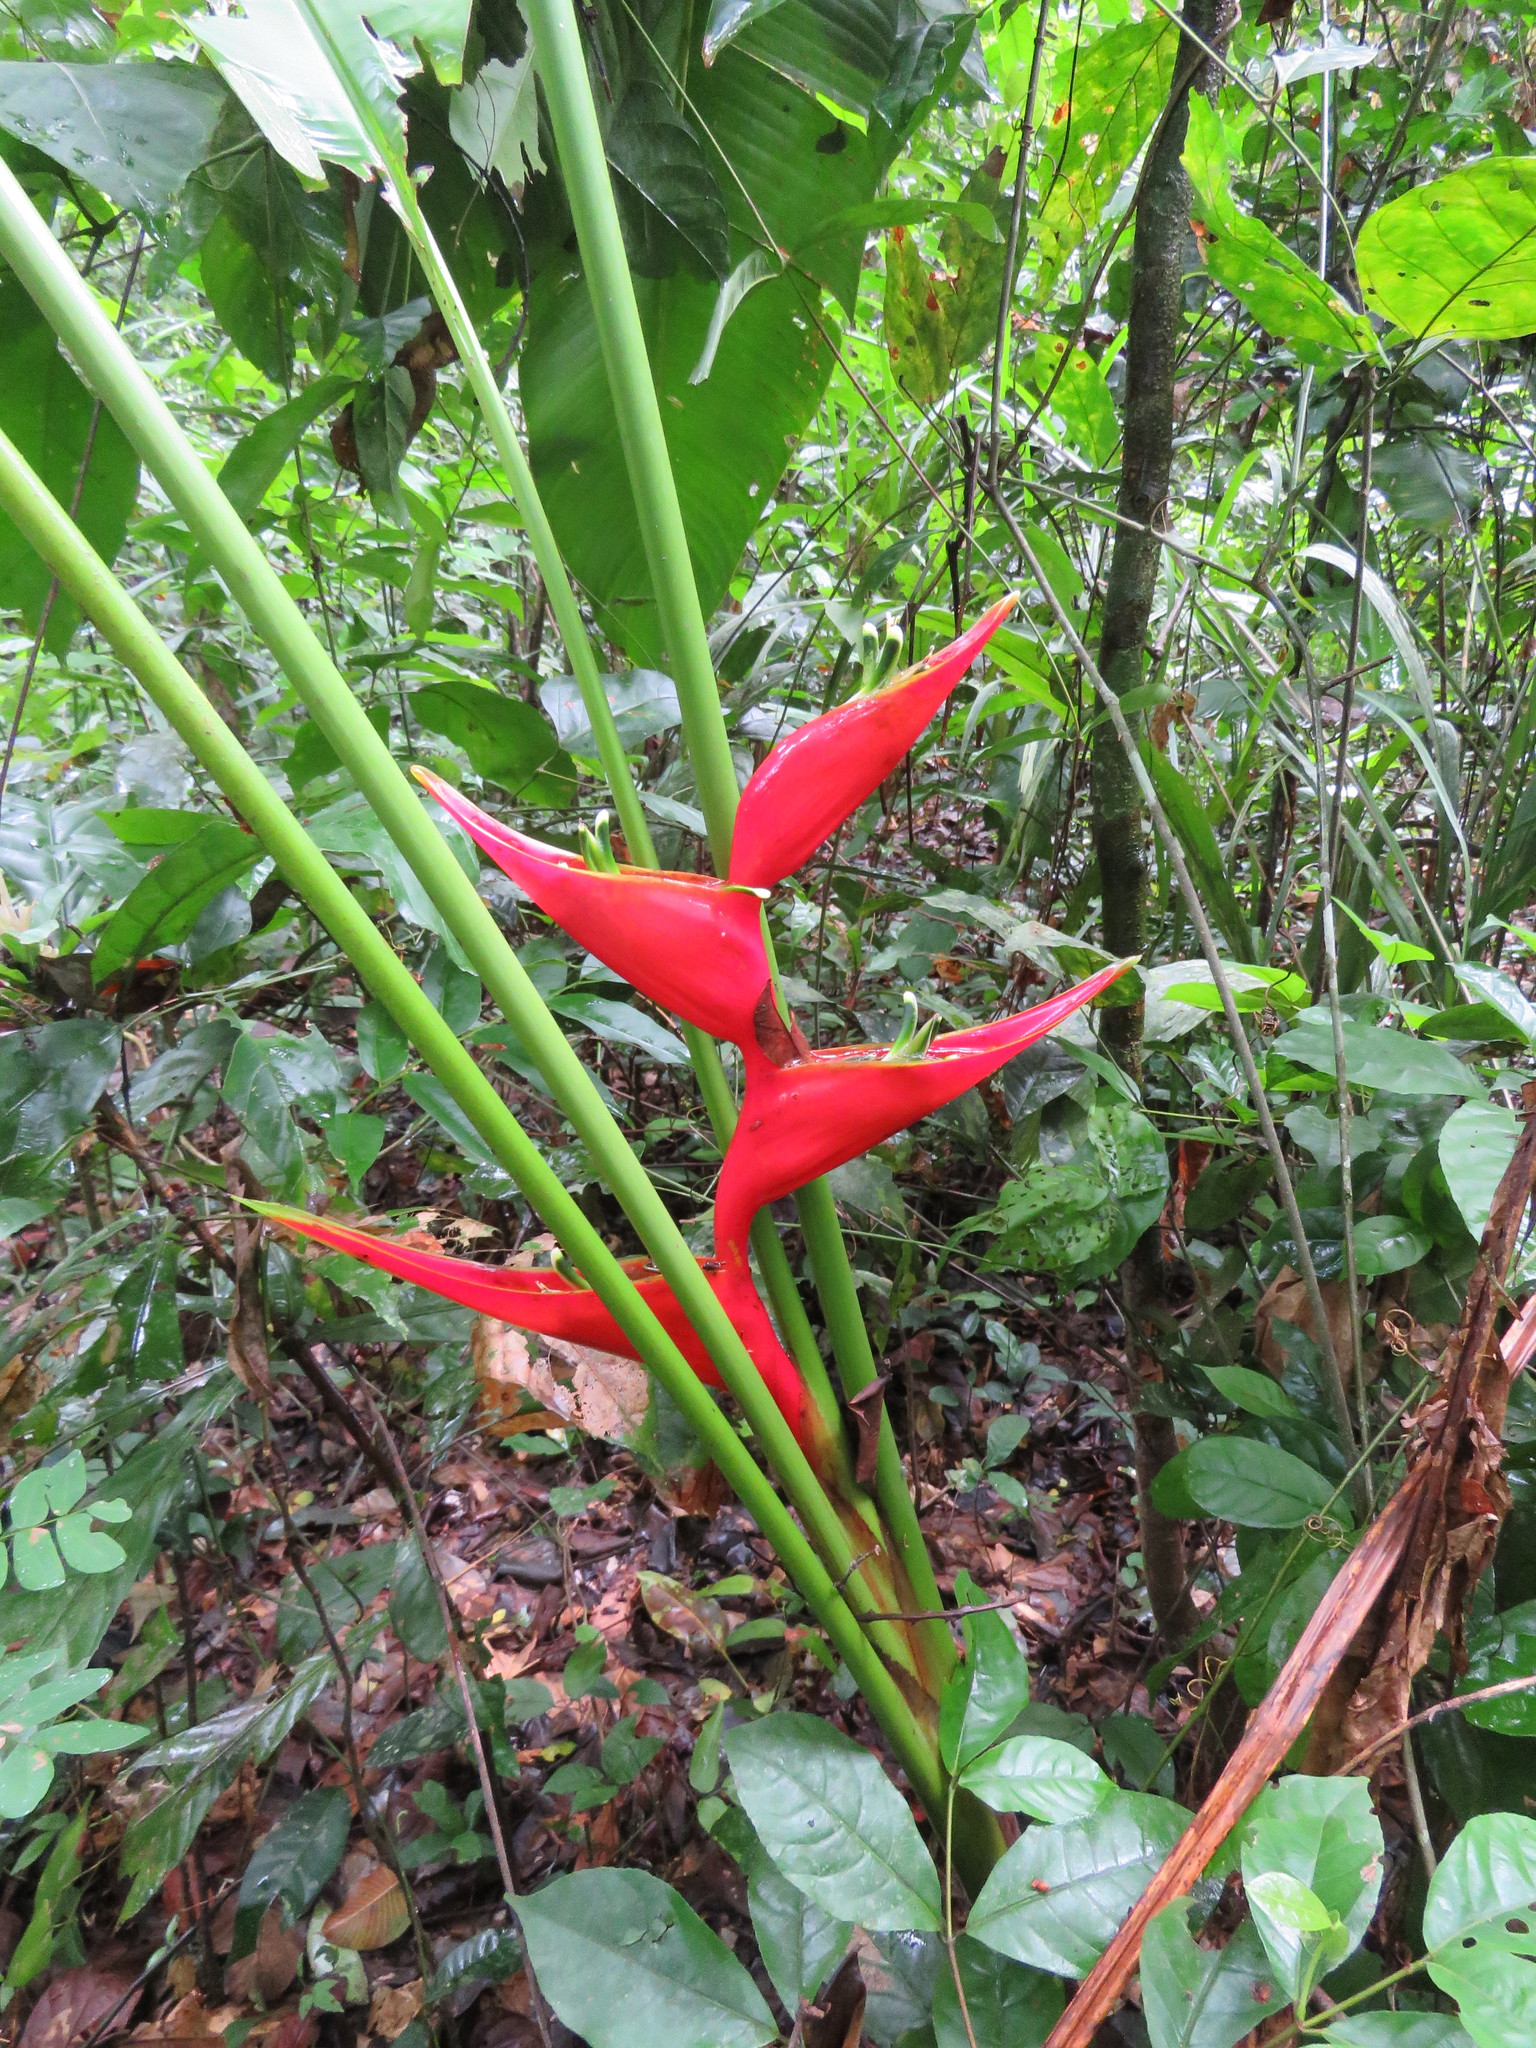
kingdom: Plantae
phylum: Tracheophyta
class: Liliopsida
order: Zingiberales
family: Heliconiaceae
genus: Heliconia
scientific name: Heliconia stricta
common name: Small lobster claw
